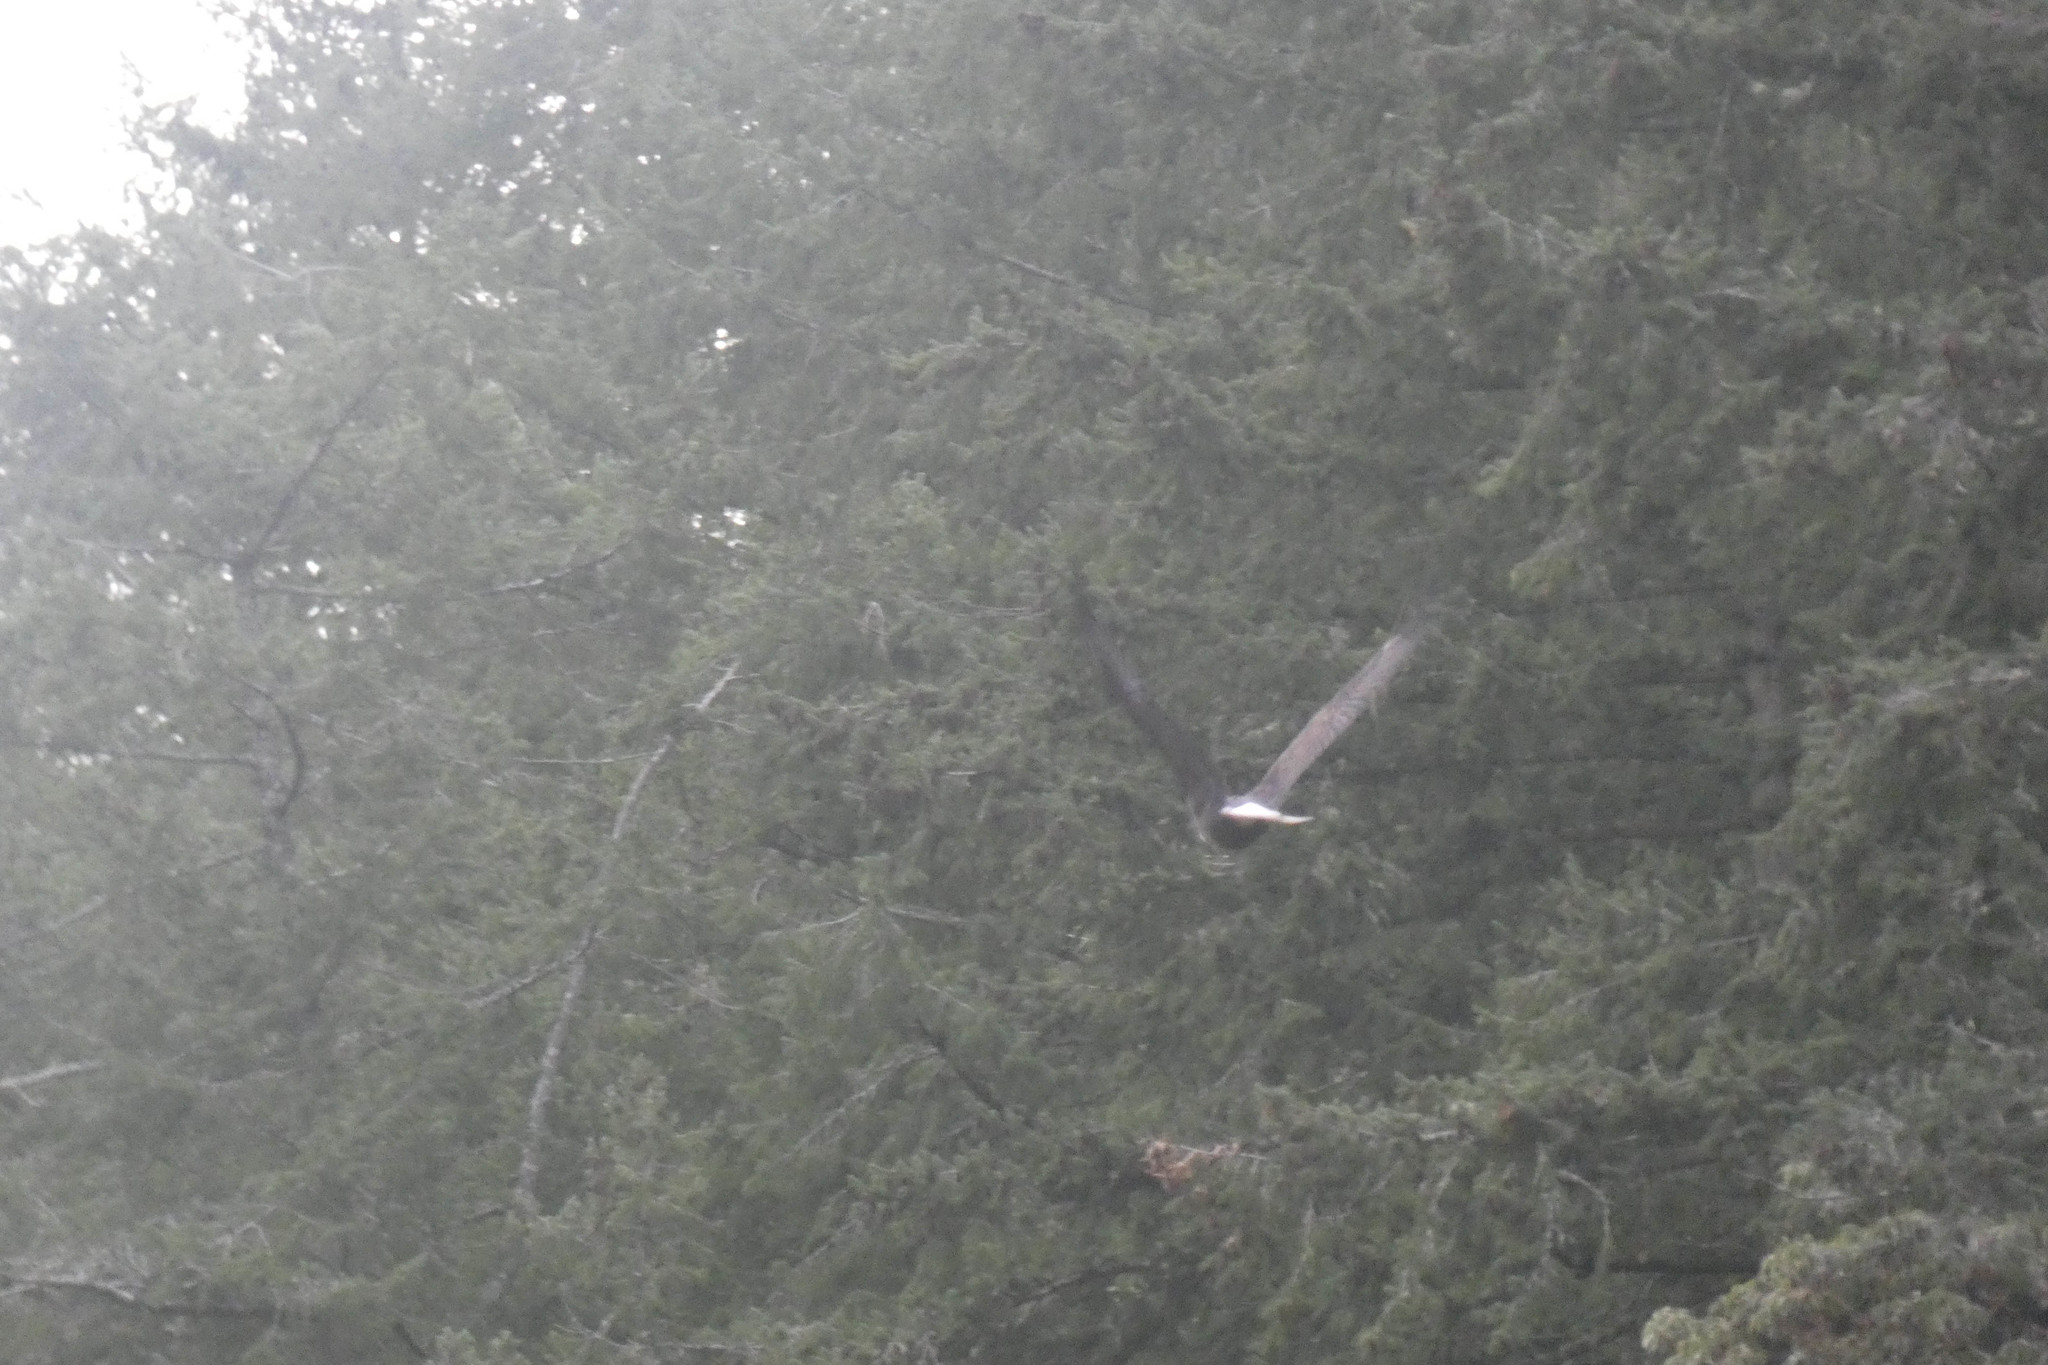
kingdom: Animalia
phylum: Chordata
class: Aves
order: Accipitriformes
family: Accipitridae
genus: Haliaeetus
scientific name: Haliaeetus leucocephalus
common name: Bald eagle
